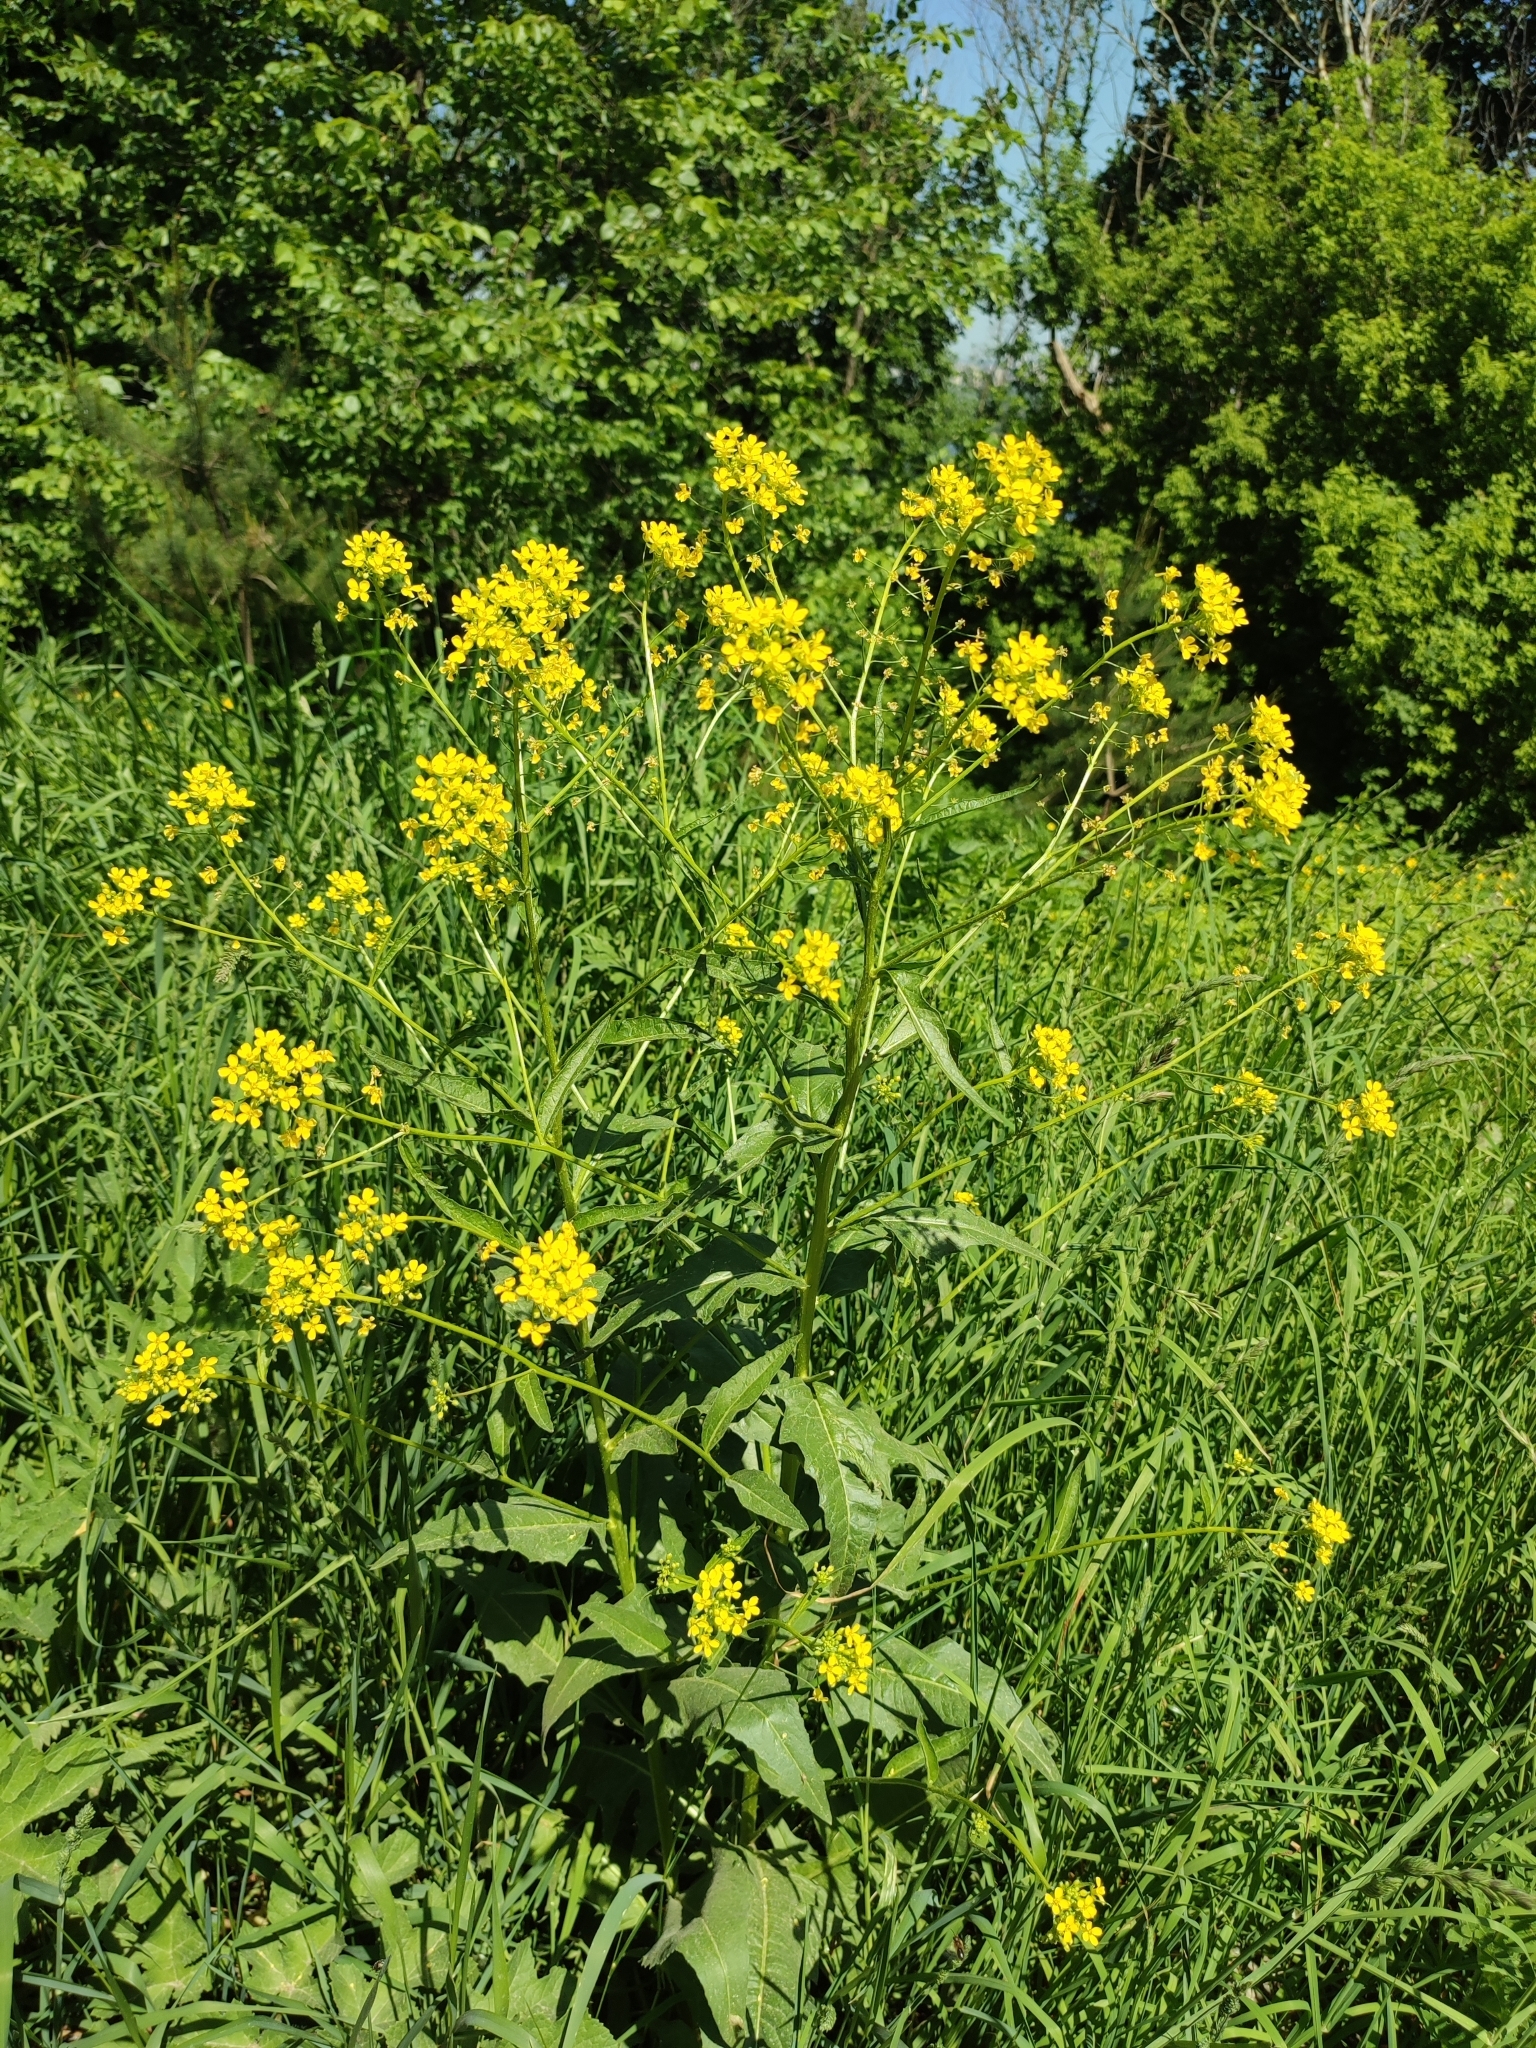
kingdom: Plantae
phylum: Tracheophyta
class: Magnoliopsida
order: Brassicales
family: Brassicaceae
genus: Bunias
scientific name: Bunias orientalis
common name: Warty-cabbage
